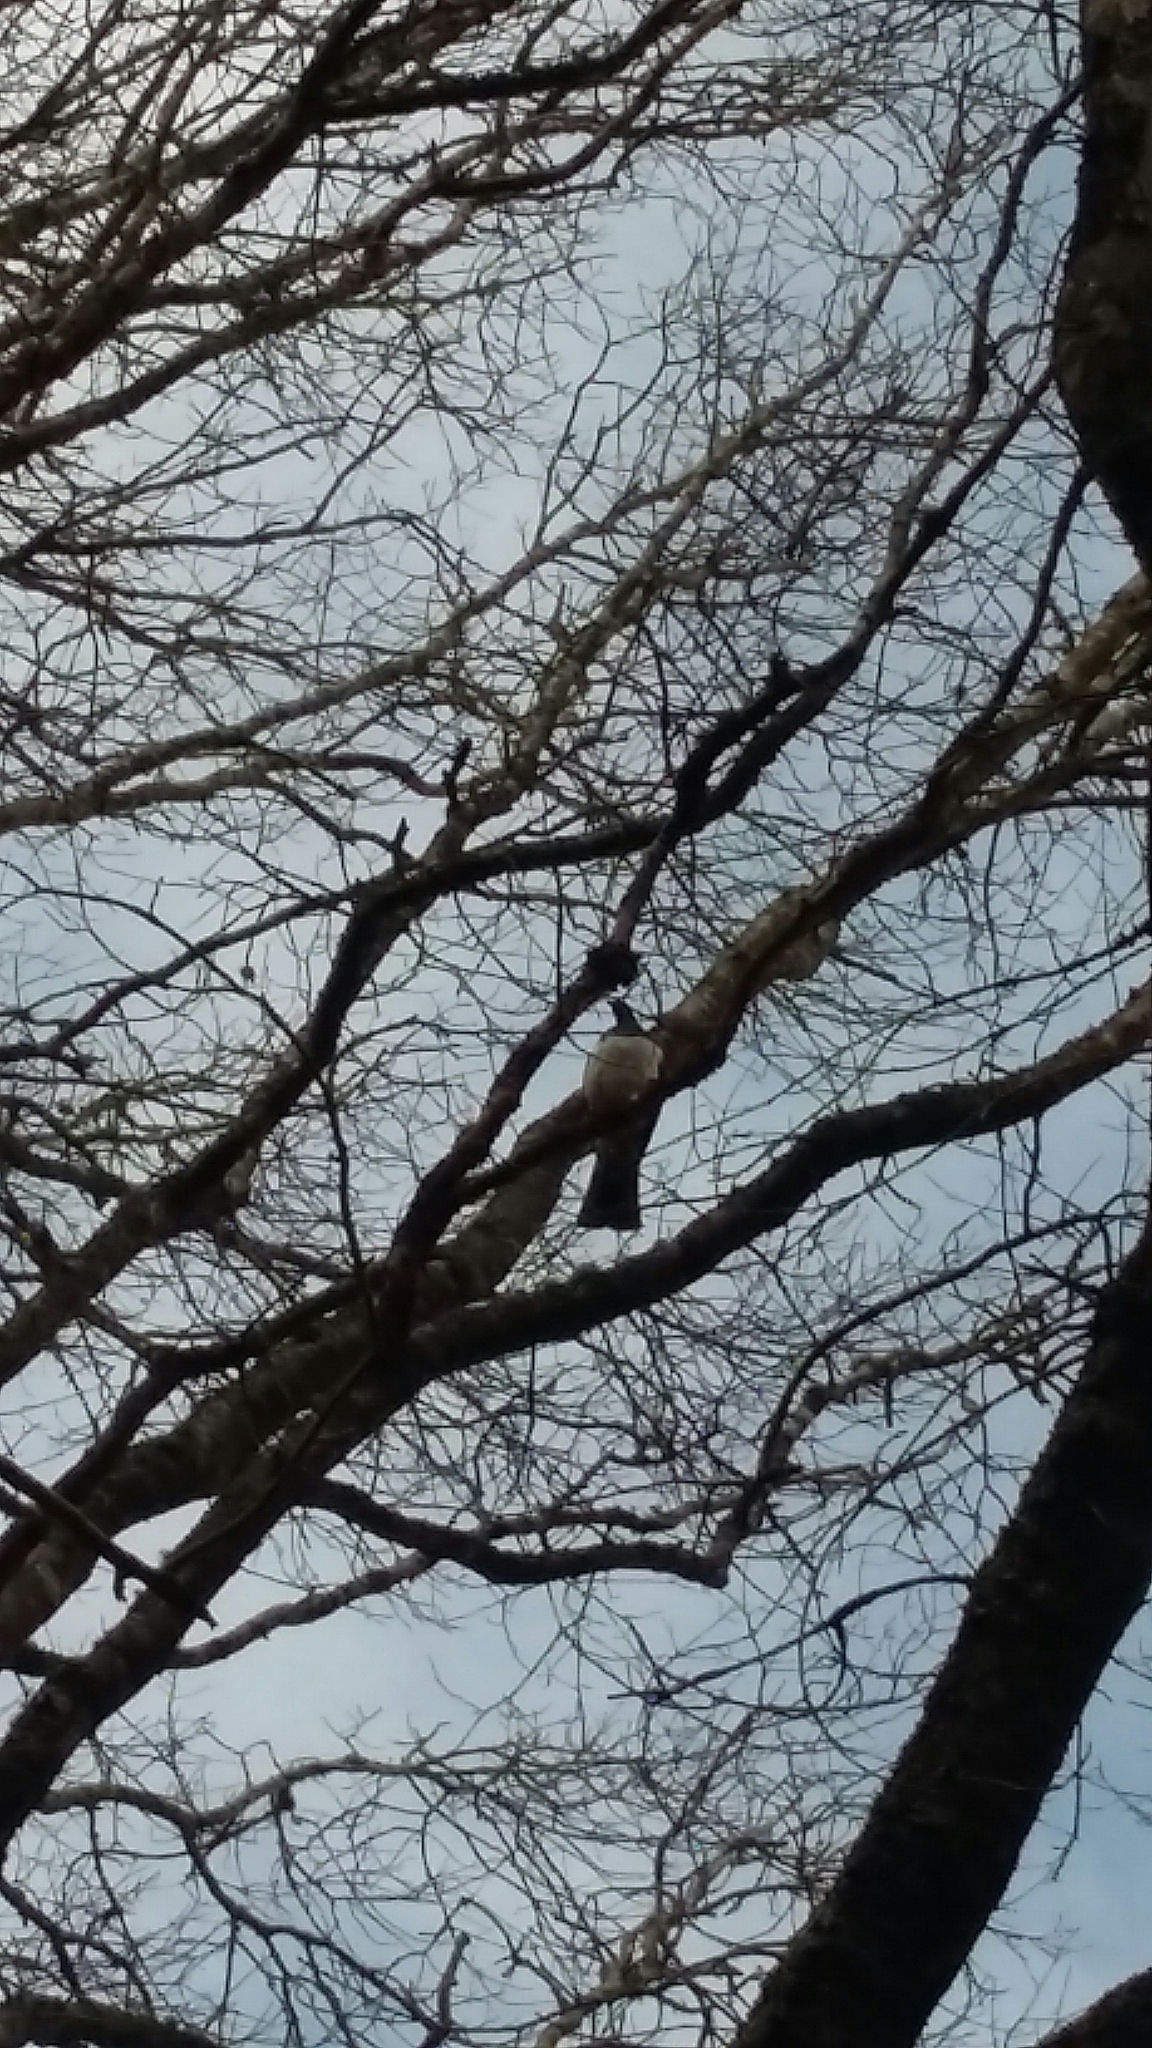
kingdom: Animalia
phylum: Chordata
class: Aves
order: Columbiformes
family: Columbidae
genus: Hemiphaga
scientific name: Hemiphaga novaeseelandiae
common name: New zealand pigeon
